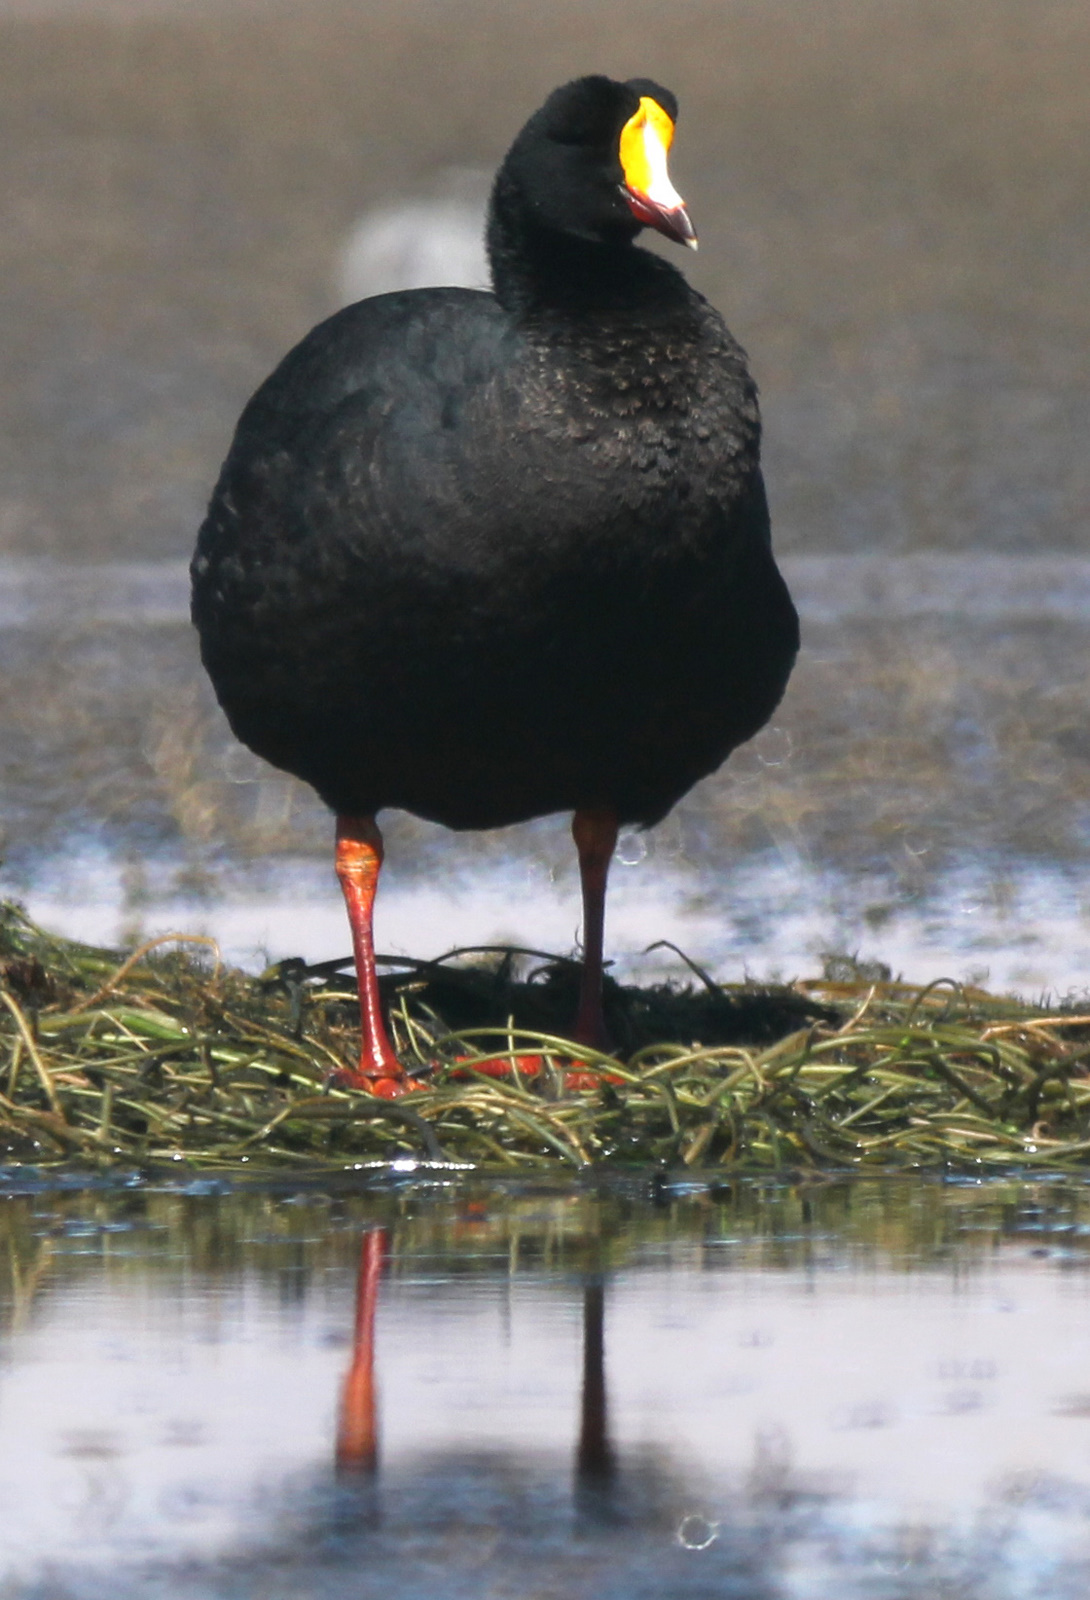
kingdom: Animalia
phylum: Chordata
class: Aves
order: Gruiformes
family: Rallidae
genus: Fulica
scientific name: Fulica gigantea
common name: Giant coot
